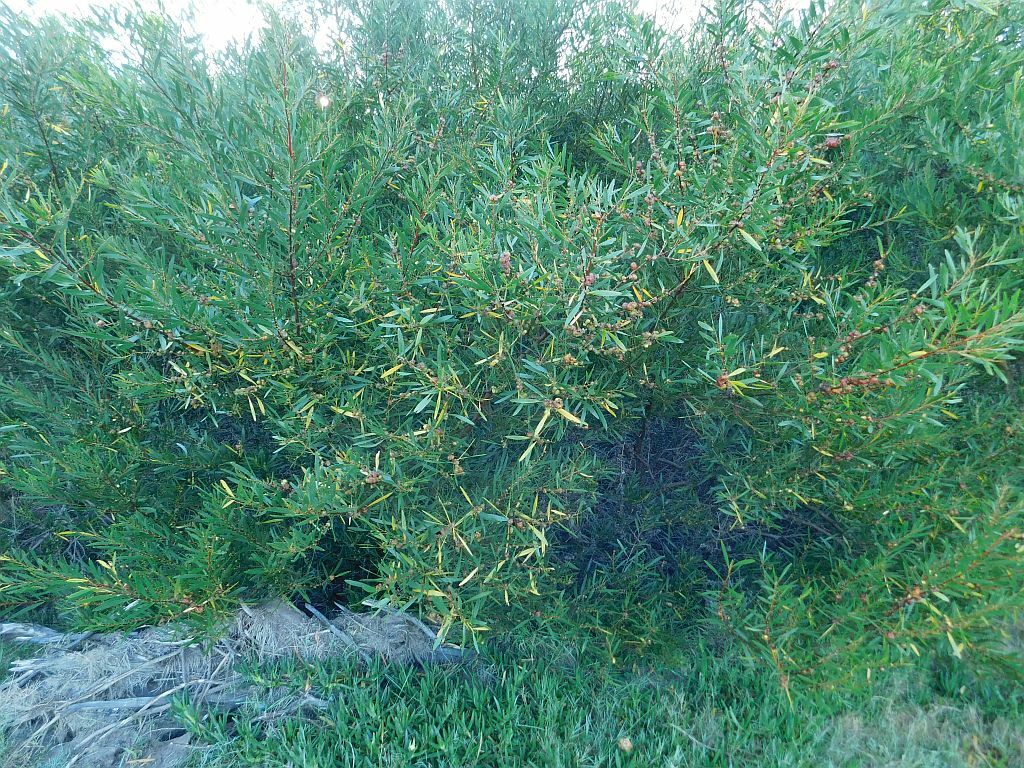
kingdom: Plantae
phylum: Tracheophyta
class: Magnoliopsida
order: Fabales
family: Fabaceae
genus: Acacia
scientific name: Acacia longifolia
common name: Sydney golden wattle
